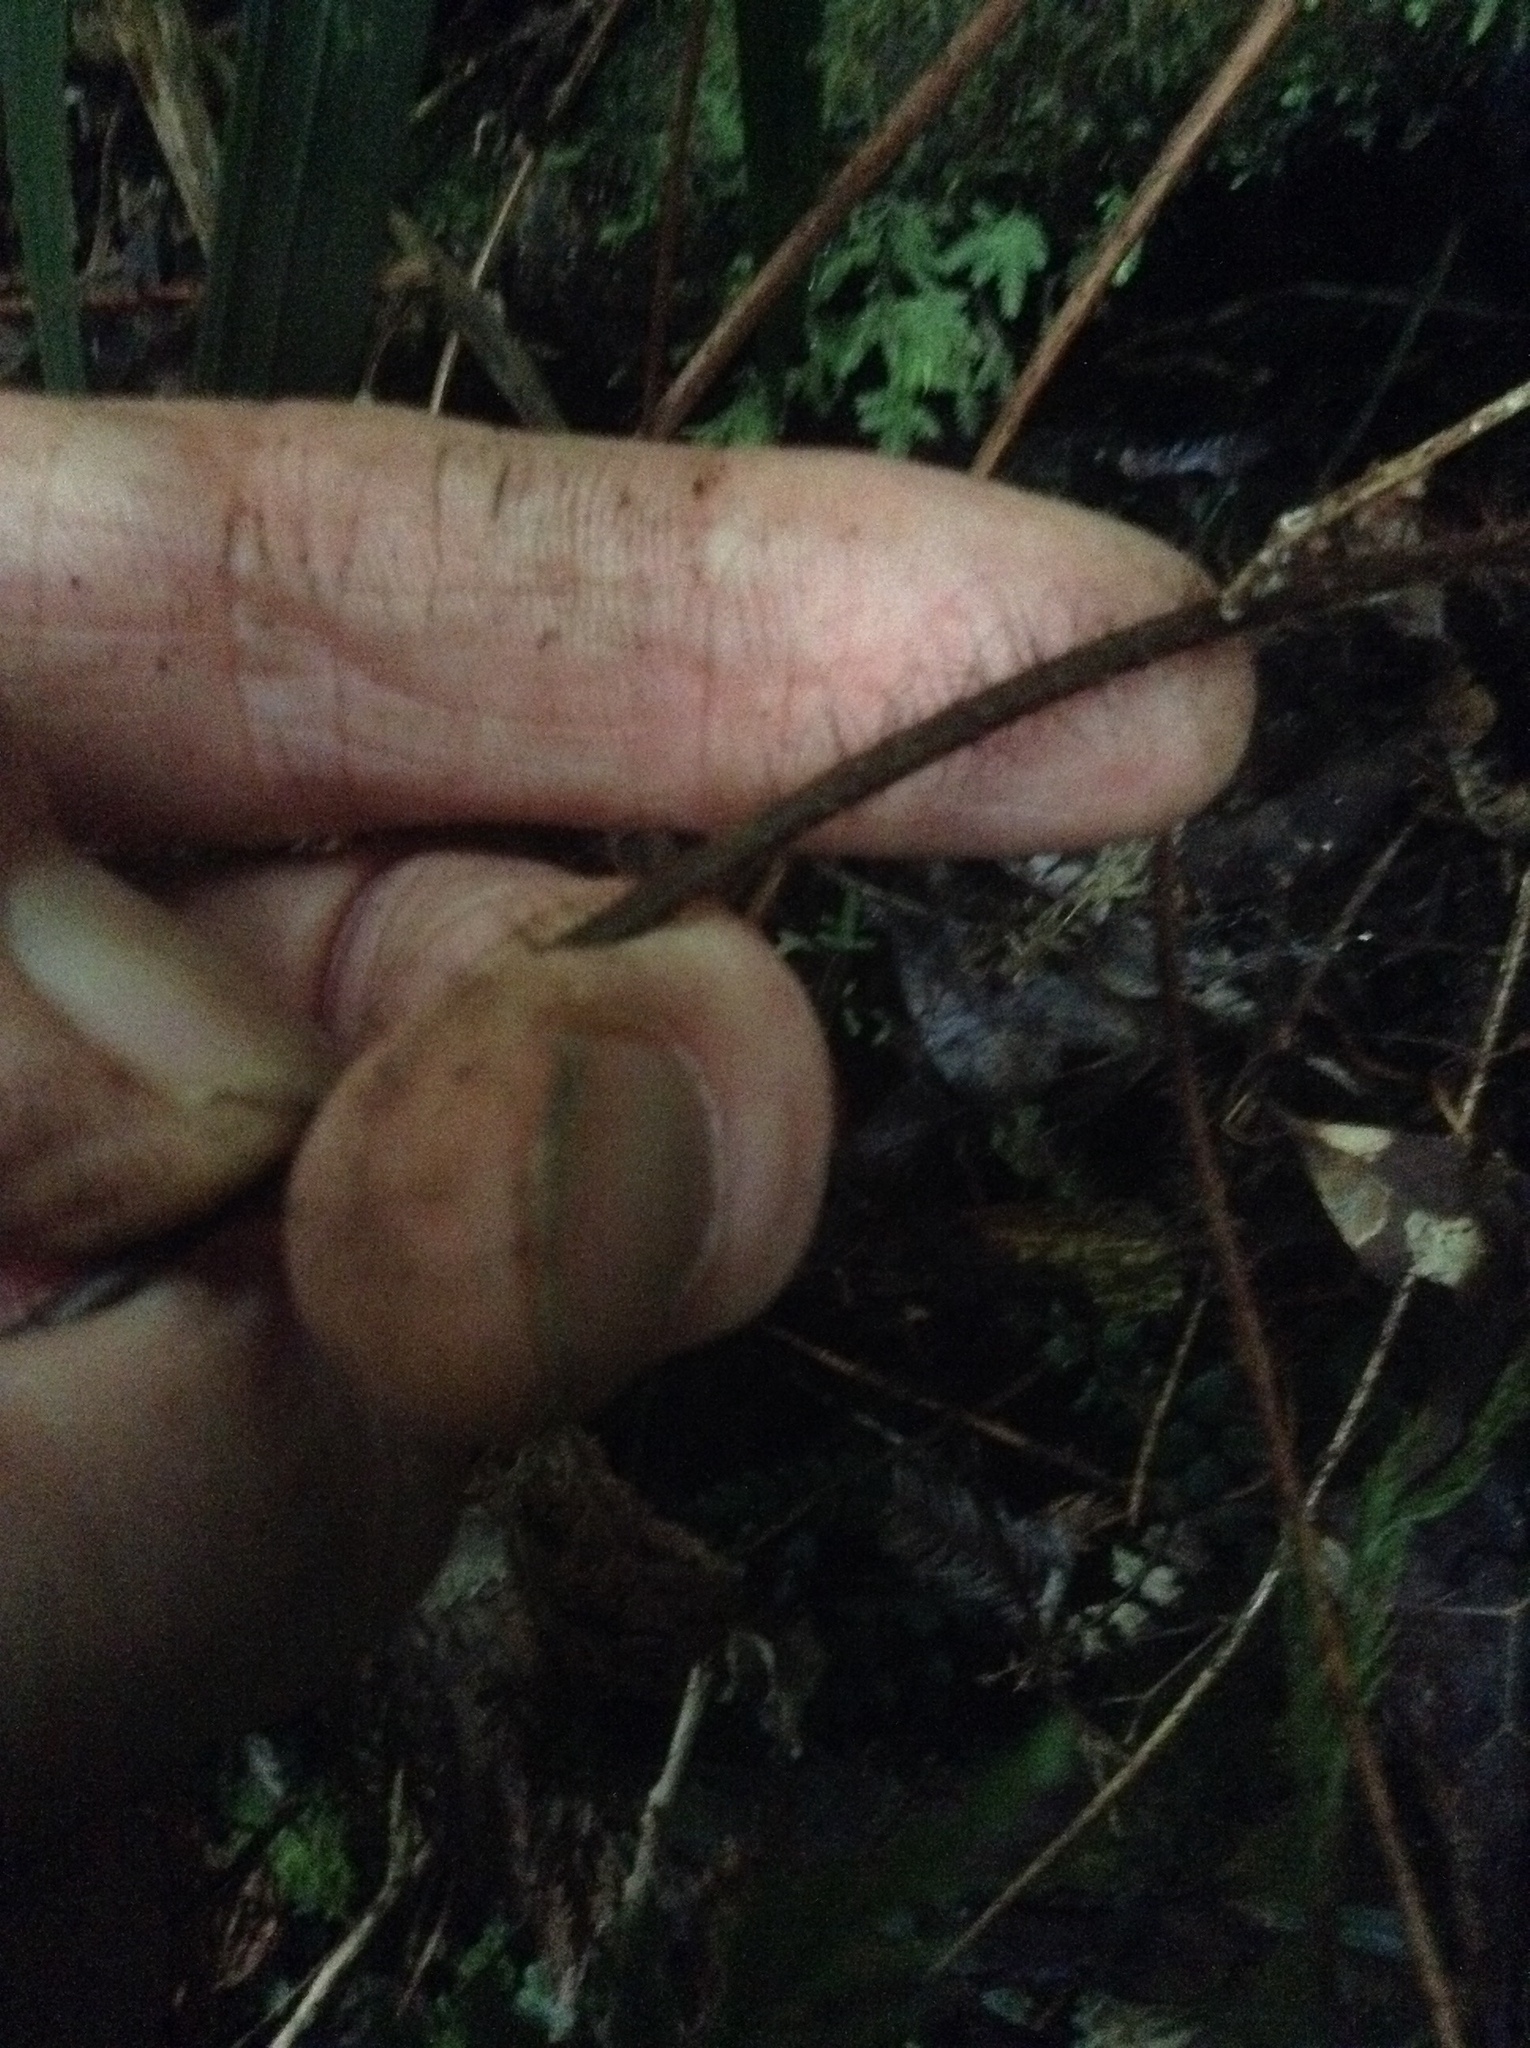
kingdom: Plantae
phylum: Tracheophyta
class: Polypodiopsida
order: Polypodiales
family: Dryopteridaceae
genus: Lastreopsis
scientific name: Lastreopsis hispida
